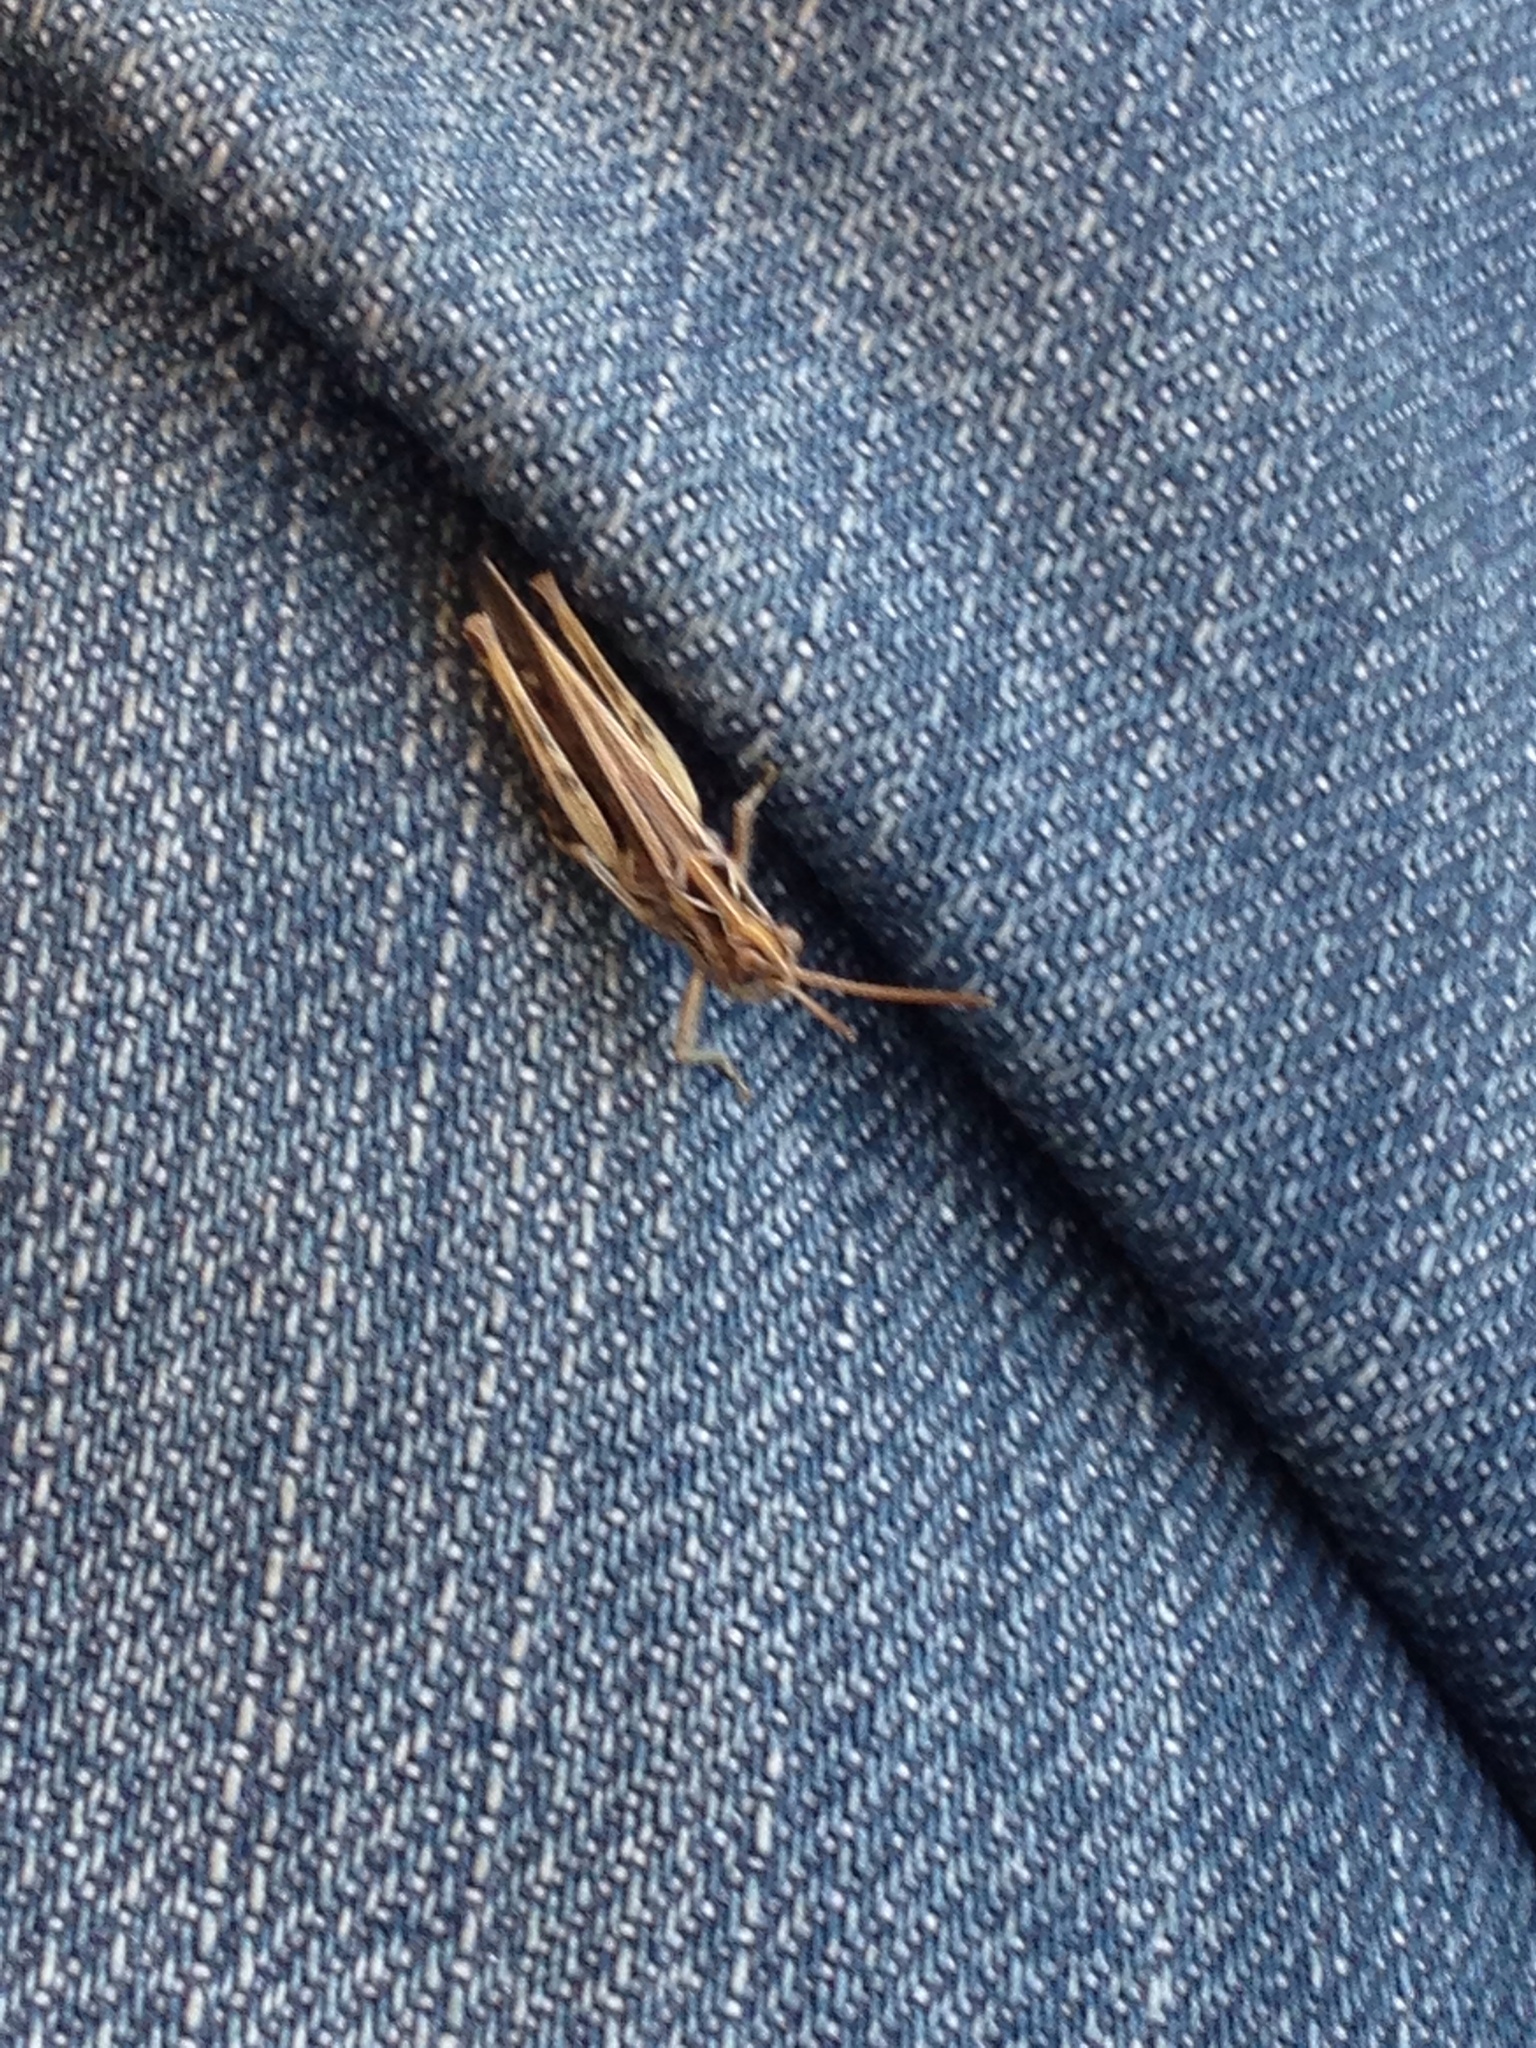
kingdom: Animalia
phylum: Arthropoda
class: Insecta
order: Orthoptera
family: Acrididae
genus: Glyptobothrus
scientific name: Glyptobothrus
